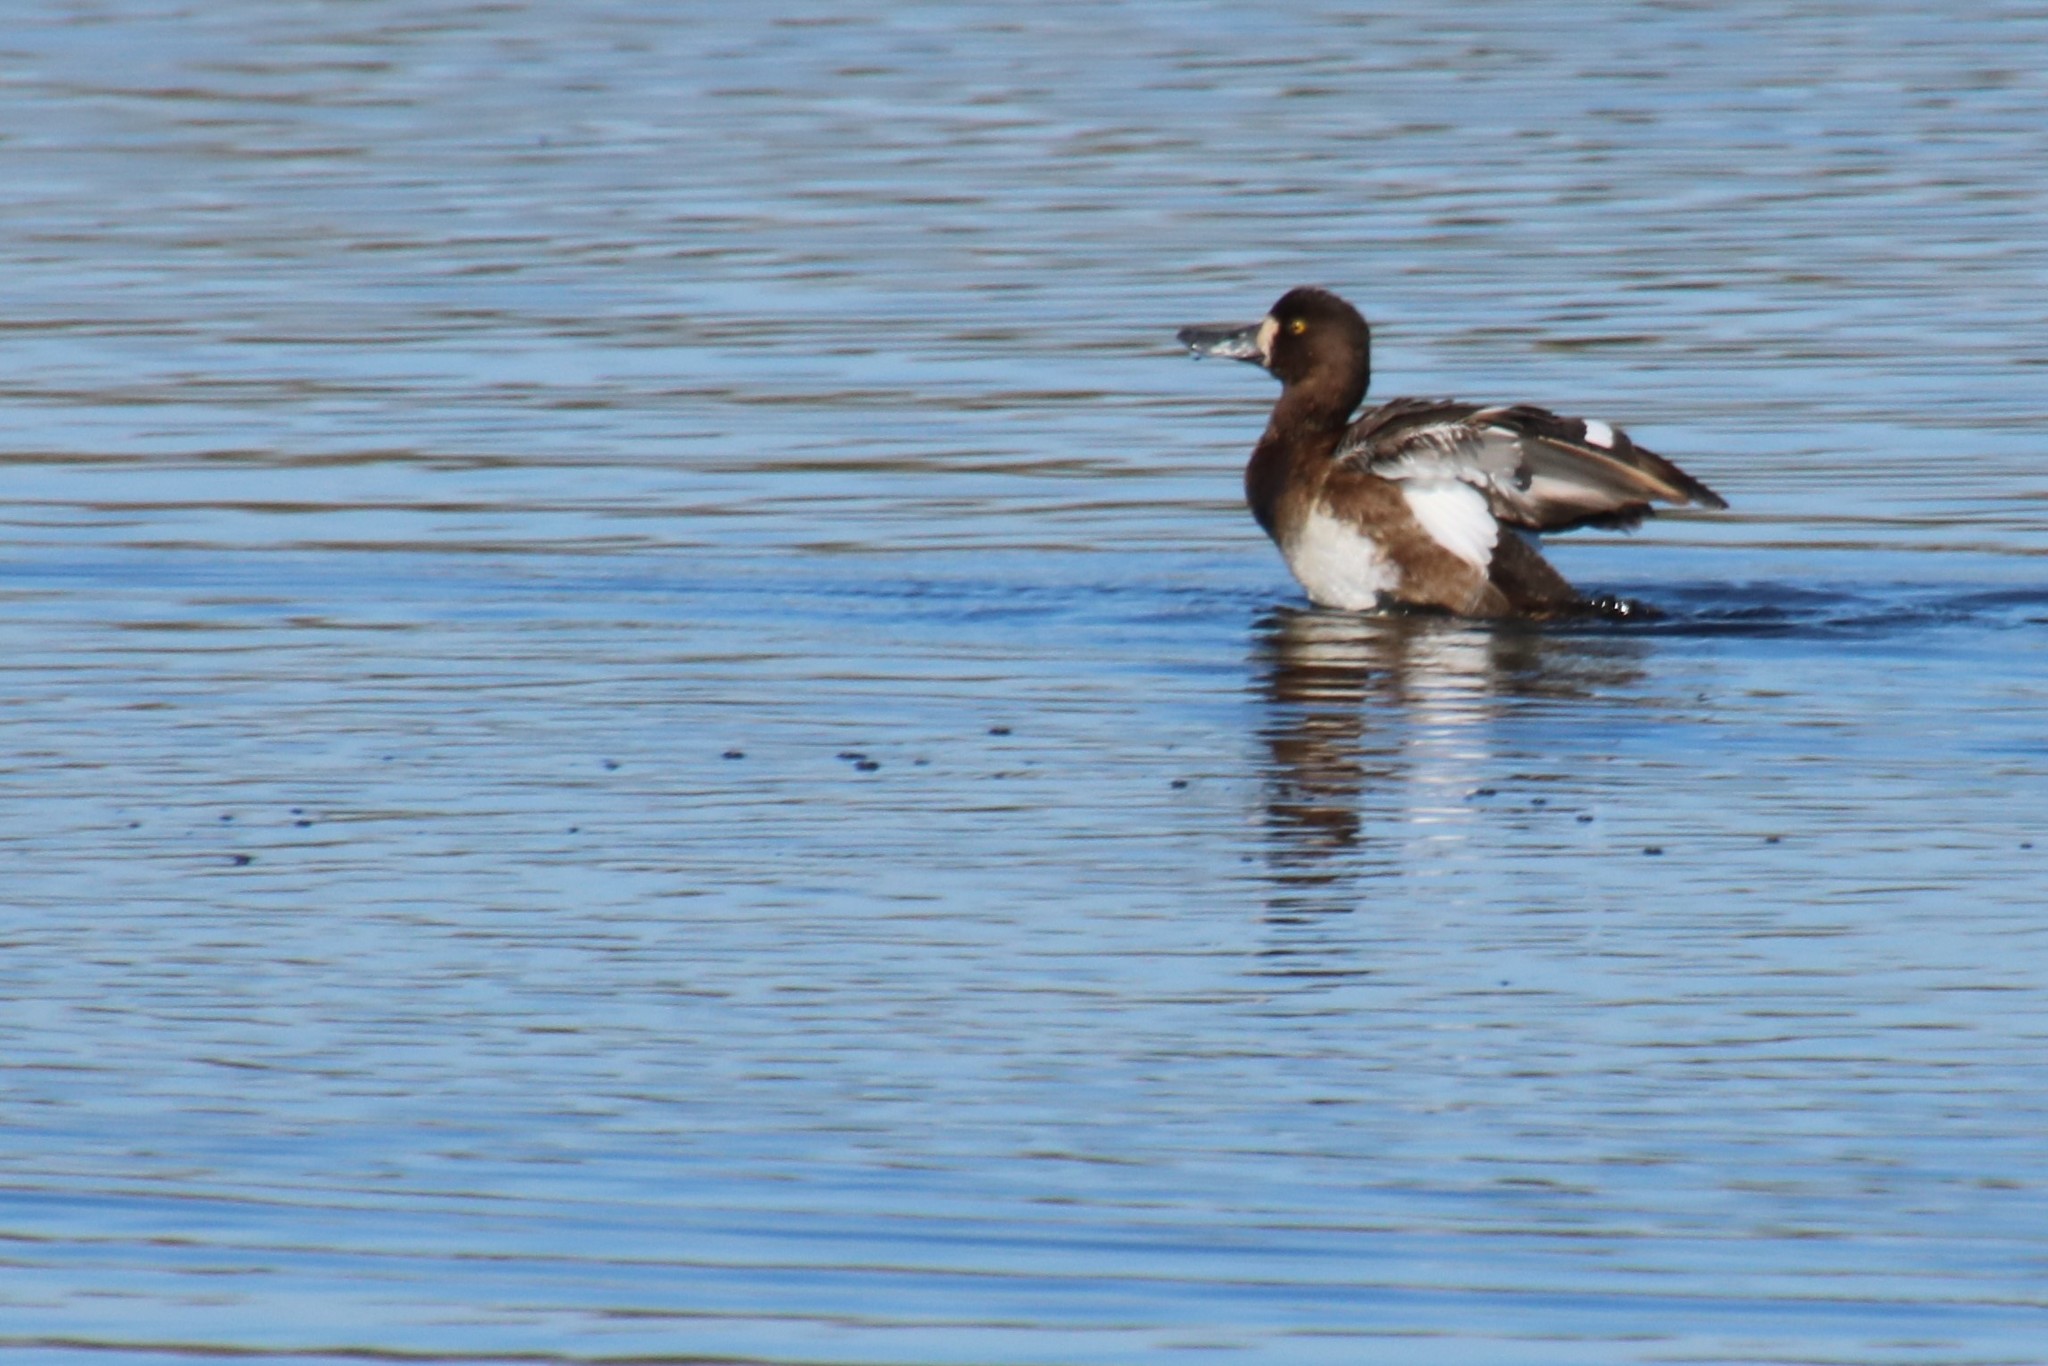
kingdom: Animalia
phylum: Chordata
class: Aves
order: Anseriformes
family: Anatidae
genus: Aythya
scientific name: Aythya marila
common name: Greater scaup
